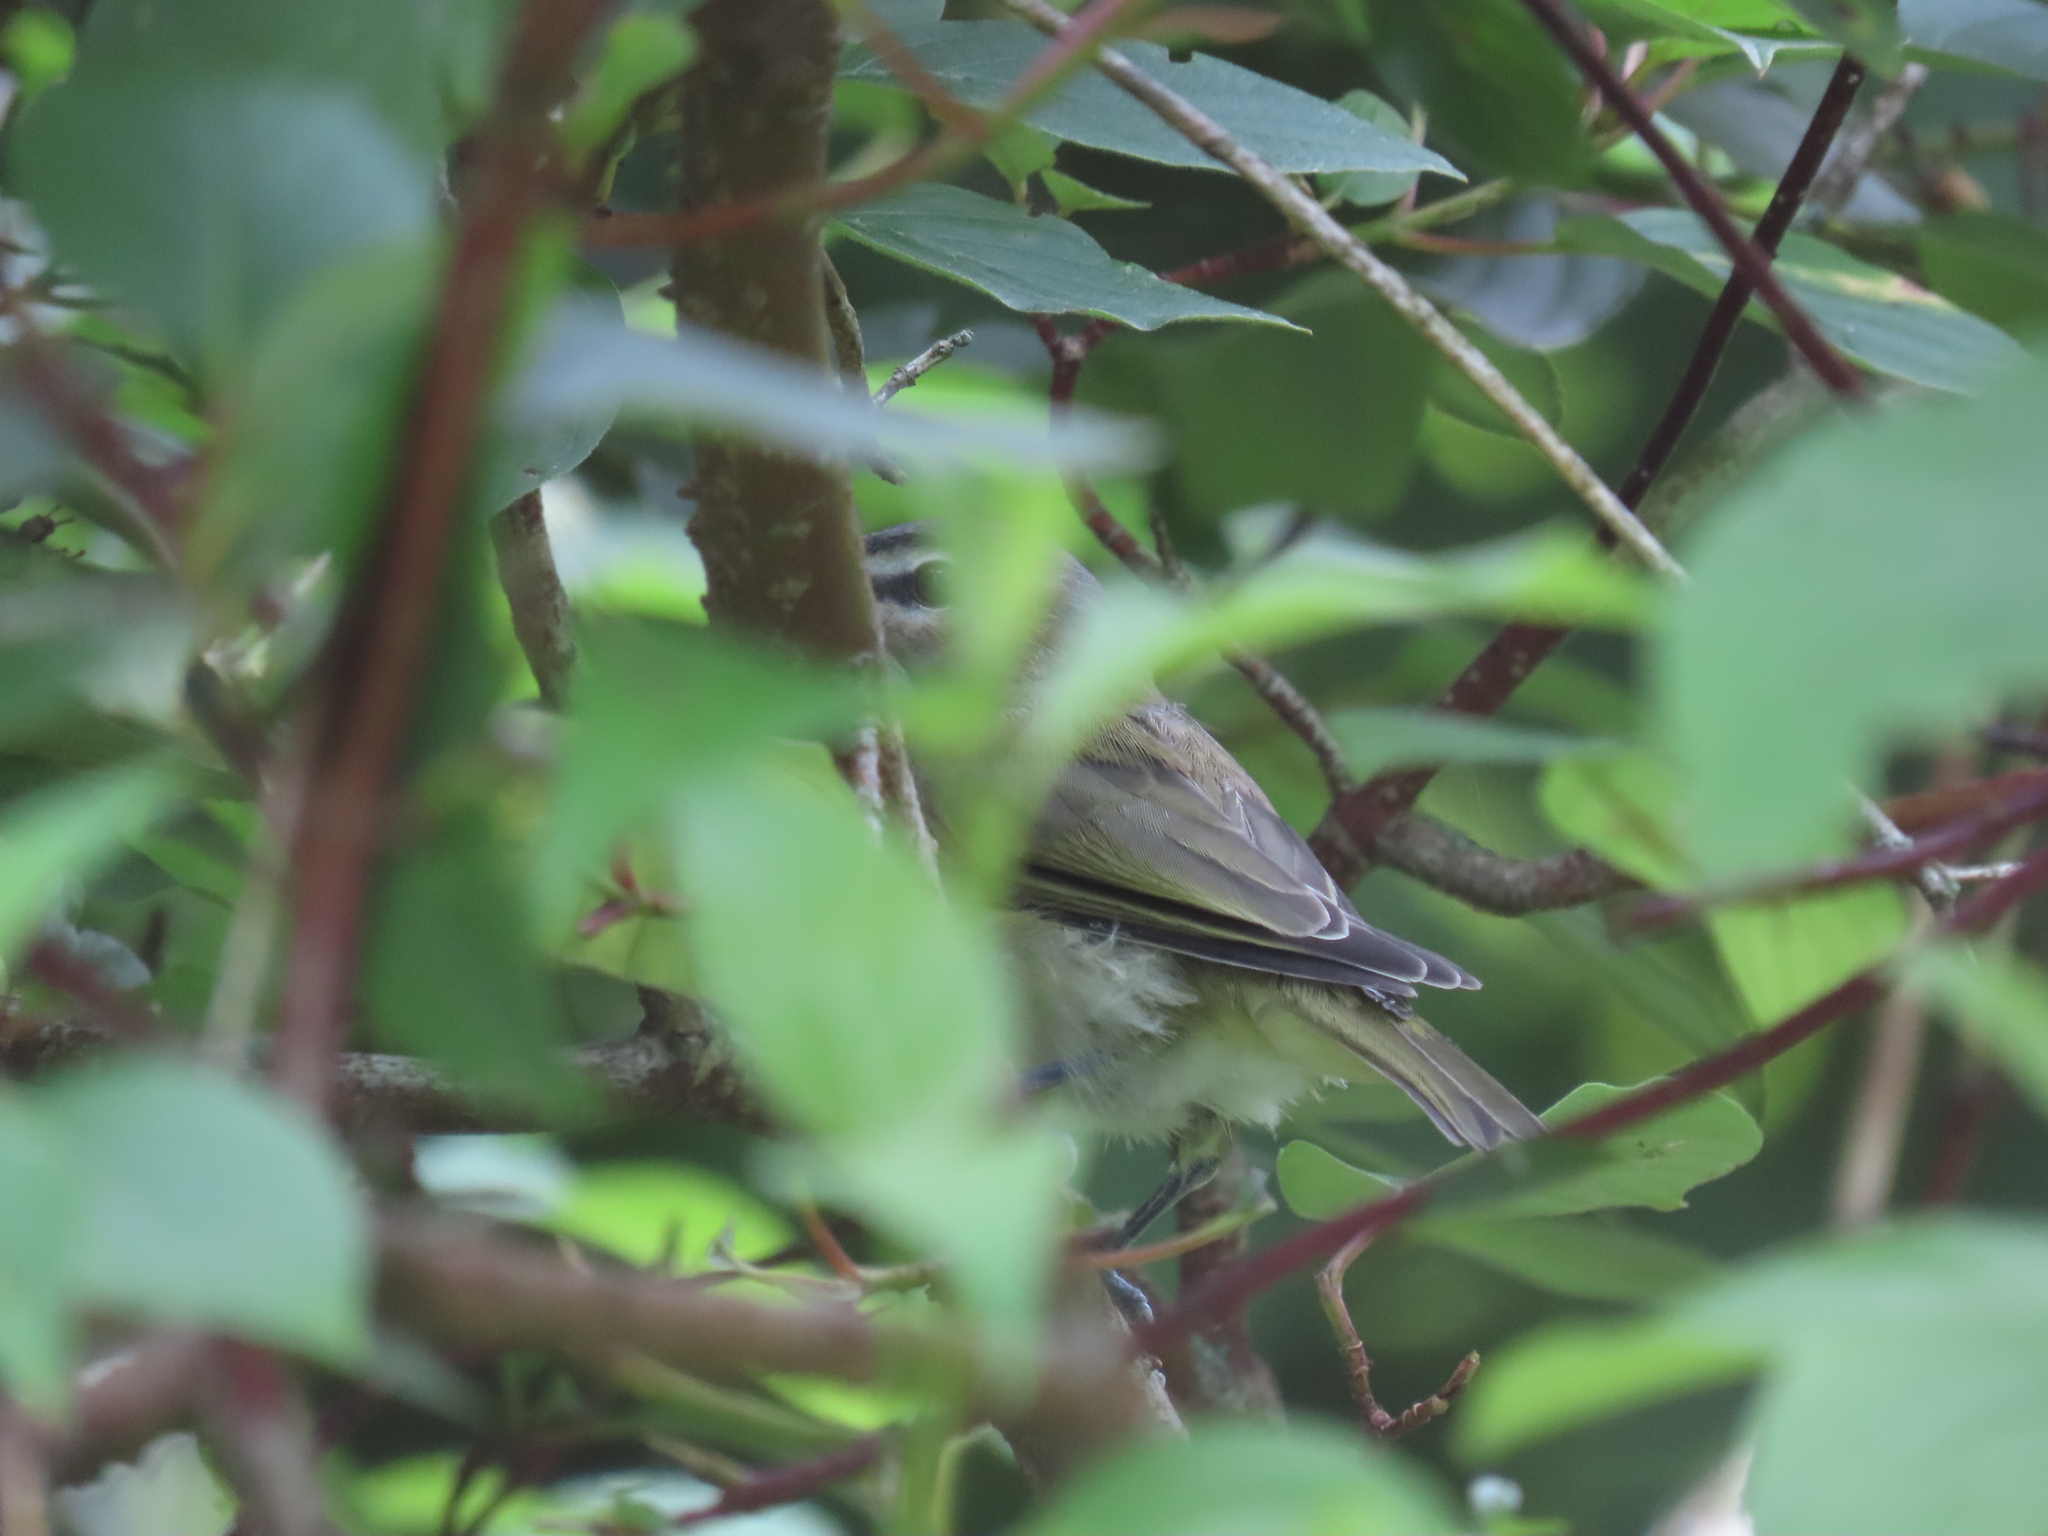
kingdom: Animalia
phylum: Chordata
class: Aves
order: Passeriformes
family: Vireonidae
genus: Vireo
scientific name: Vireo olivaceus
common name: Red-eyed vireo
